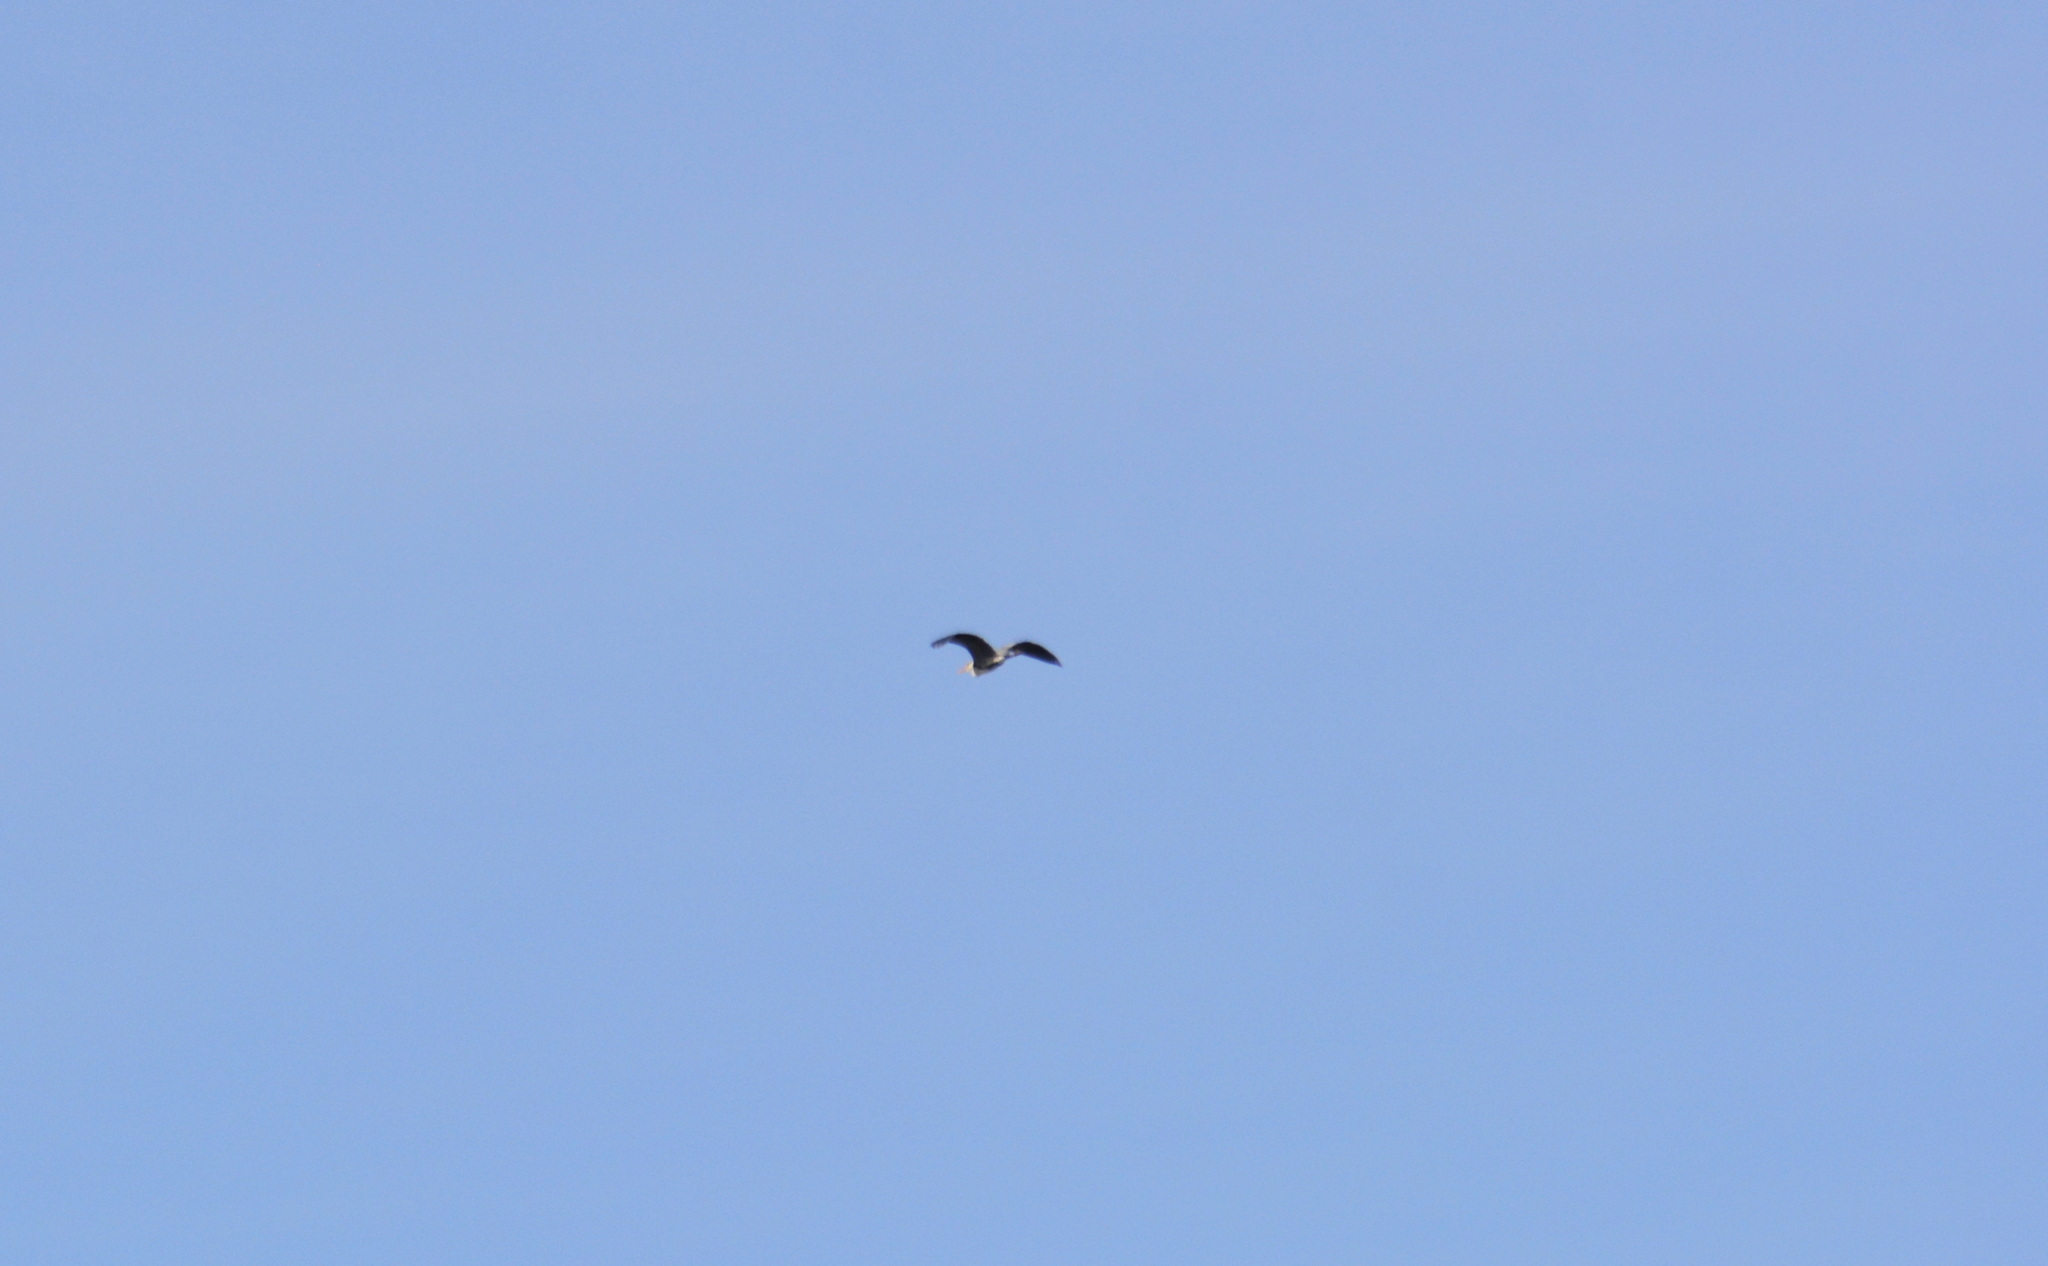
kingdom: Animalia
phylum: Chordata
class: Aves
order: Pelecaniformes
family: Ardeidae
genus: Ardea
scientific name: Ardea cinerea
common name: Grey heron
